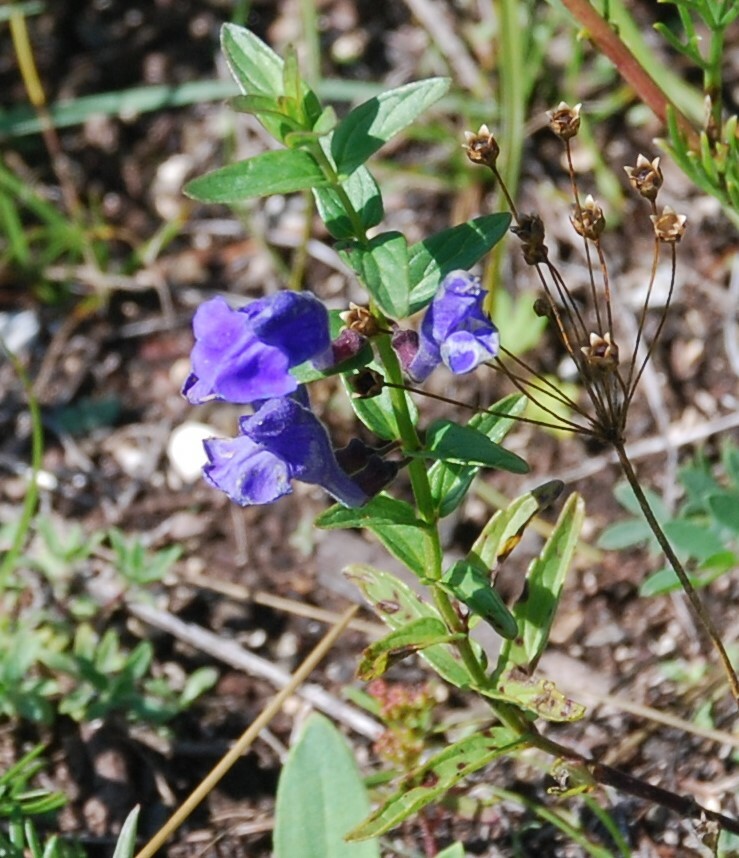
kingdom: Plantae
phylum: Tracheophyta
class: Magnoliopsida
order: Lamiales
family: Lamiaceae
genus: Scutellaria
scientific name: Scutellaria scordiifolia
